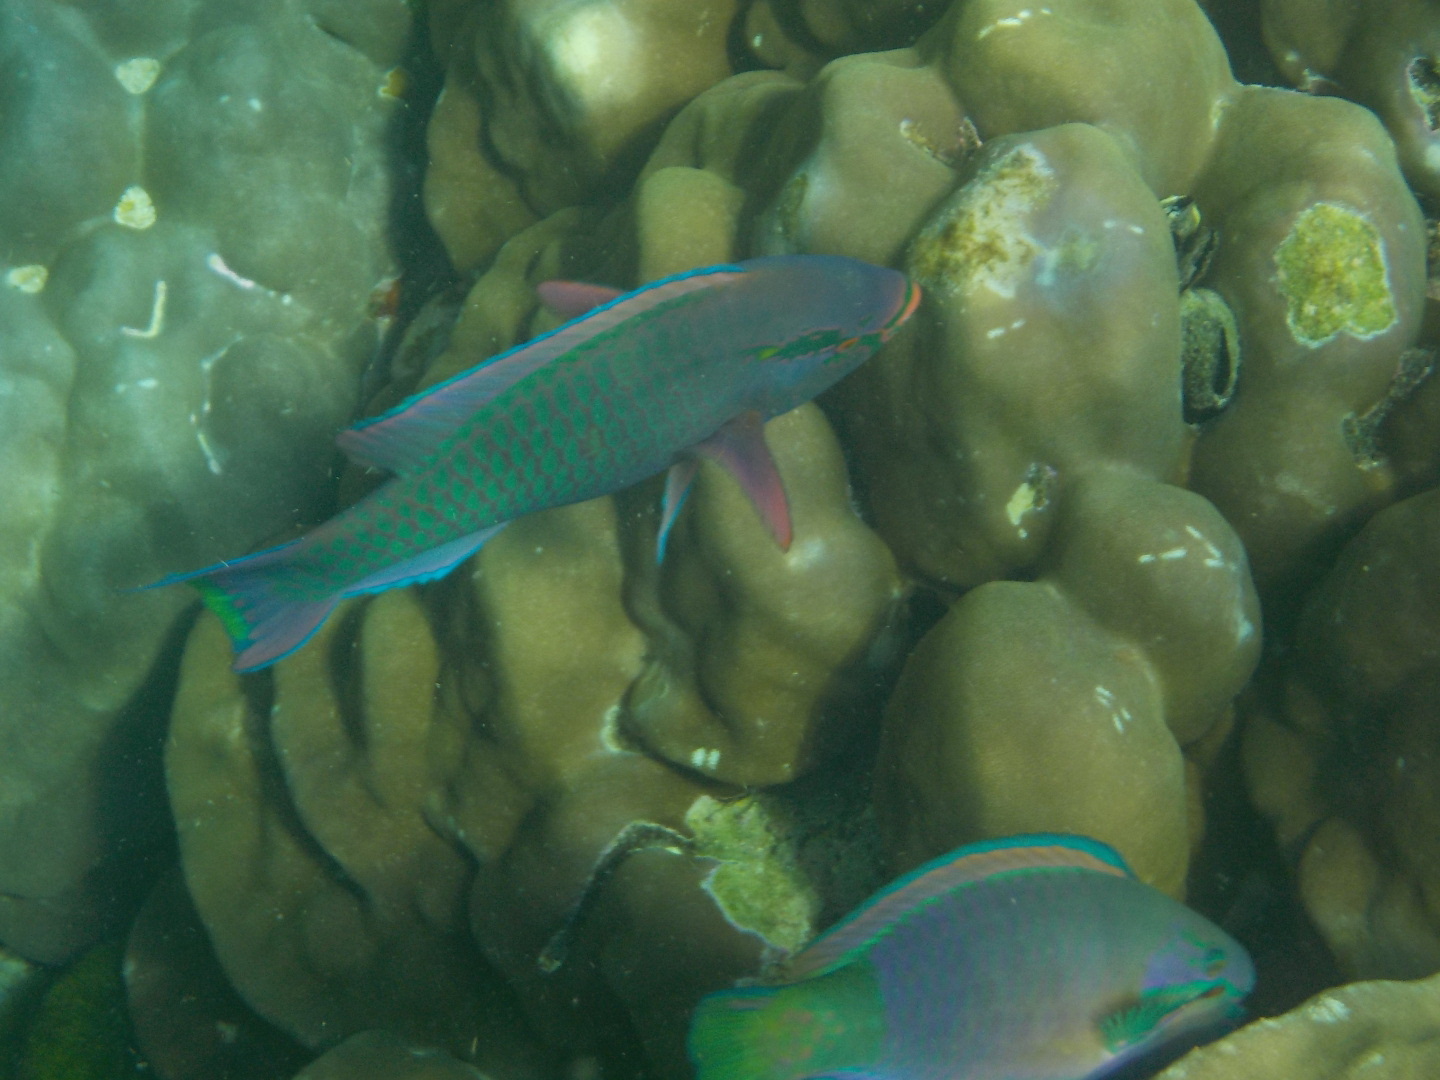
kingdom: Animalia
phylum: Chordata
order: Perciformes
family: Scaridae
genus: Chlorurus
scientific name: Chlorurus troschelii
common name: Troschel's parrotfish
